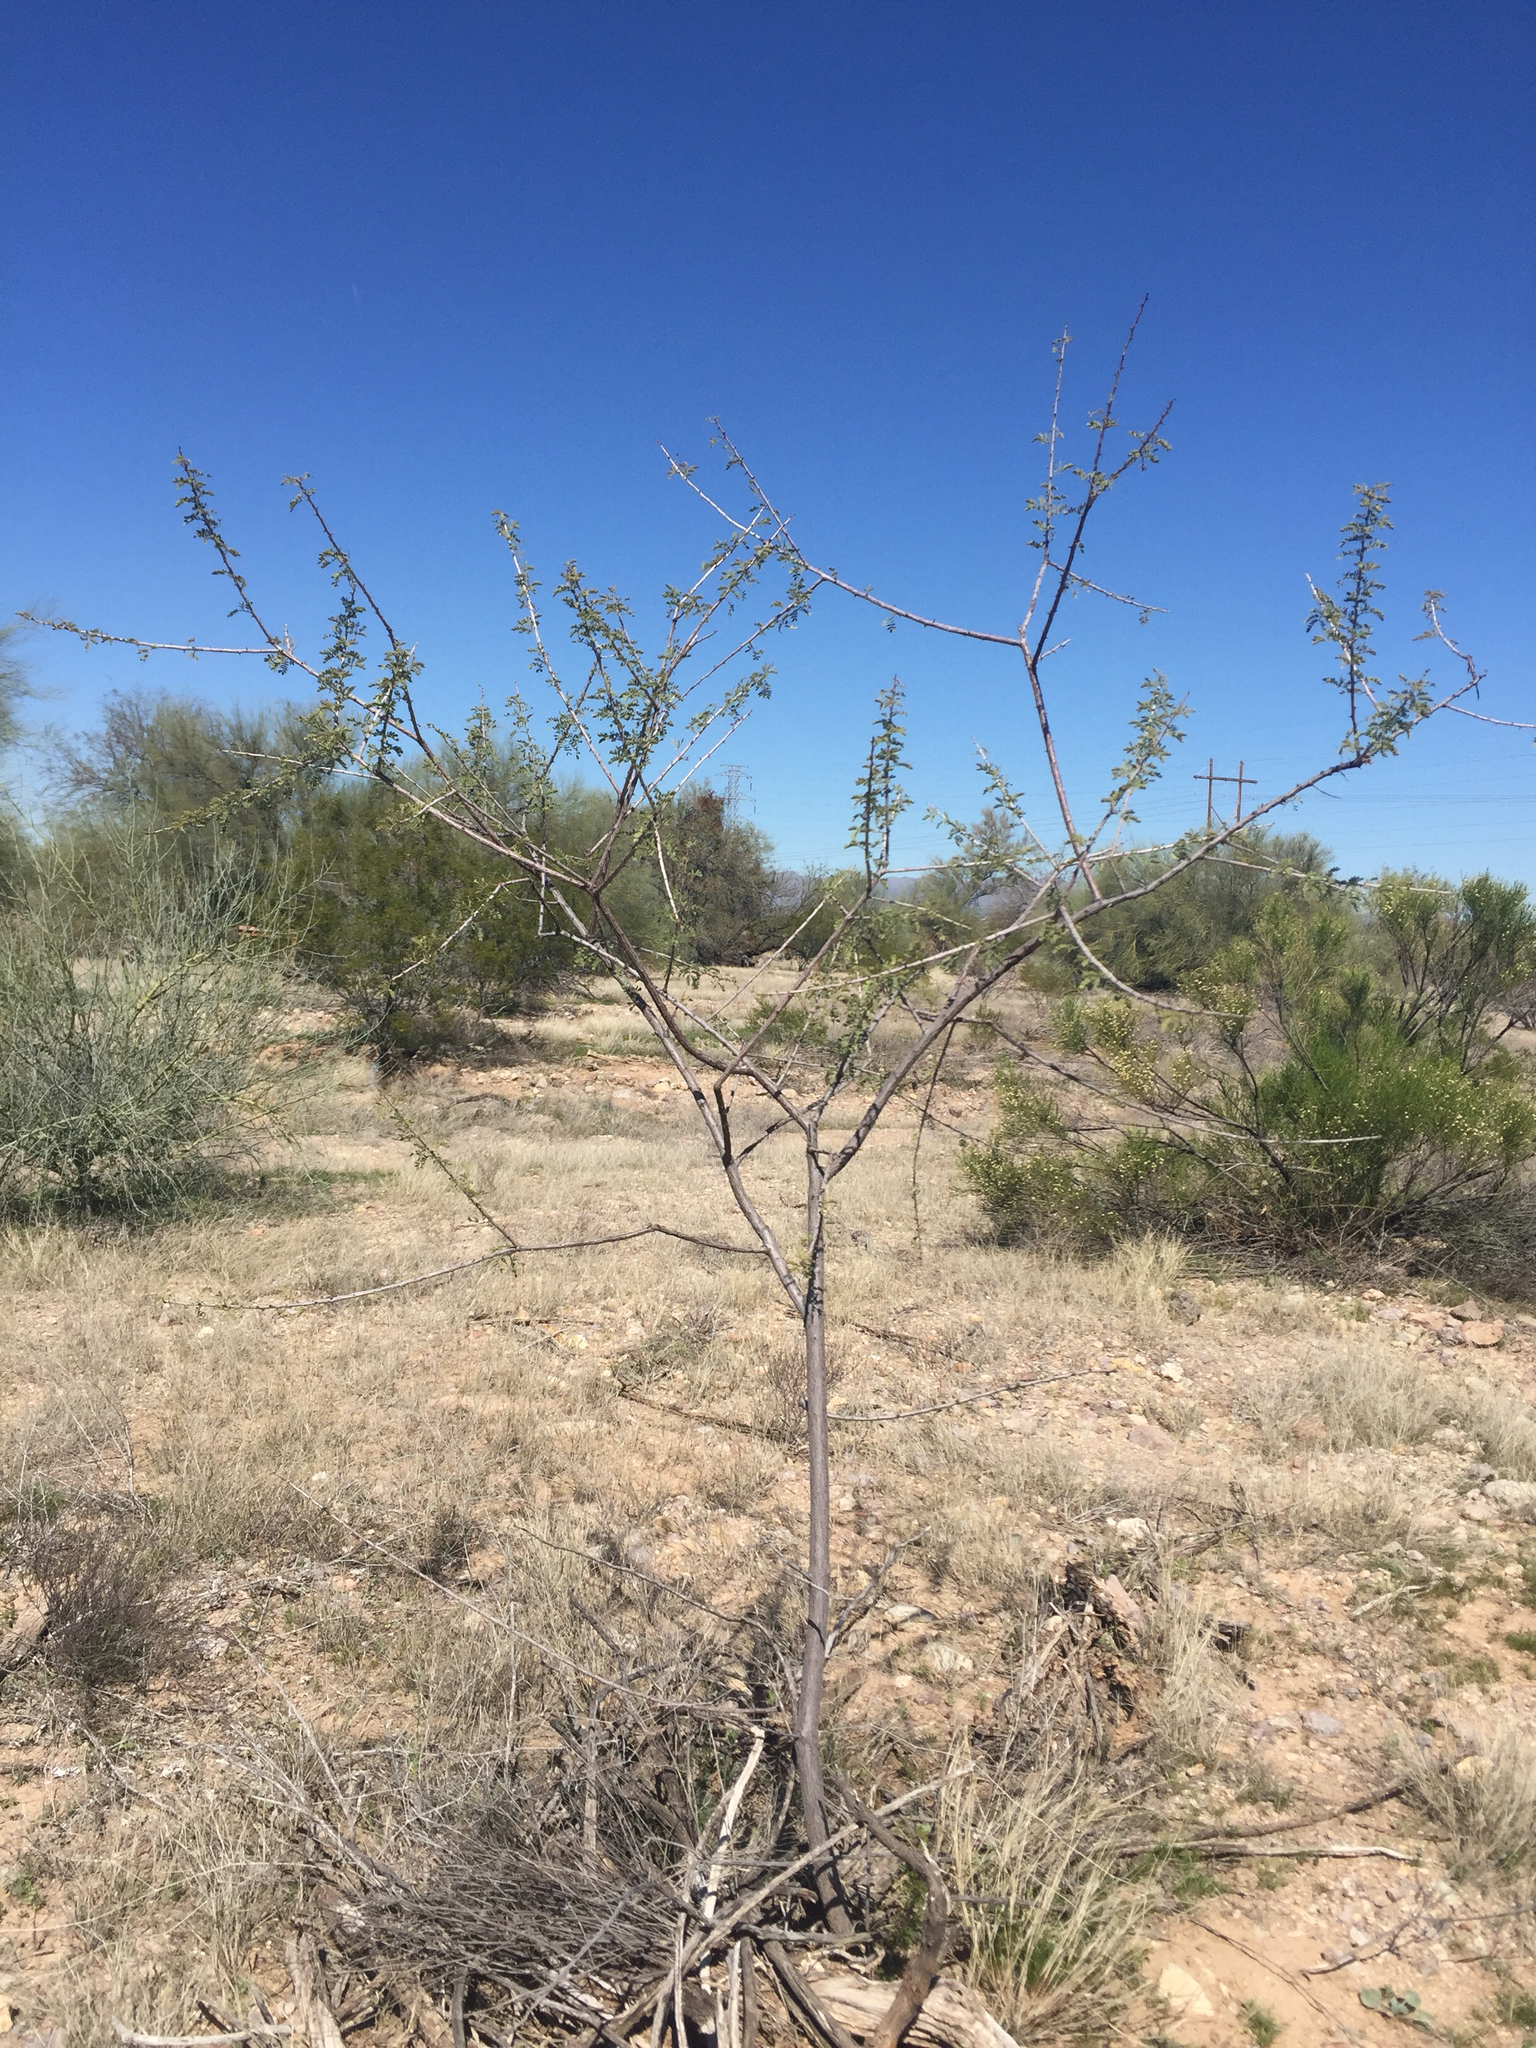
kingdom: Plantae
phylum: Tracheophyta
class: Magnoliopsida
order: Fabales
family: Fabaceae
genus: Senegalia
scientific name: Senegalia greggii
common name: Texas-mimosa
